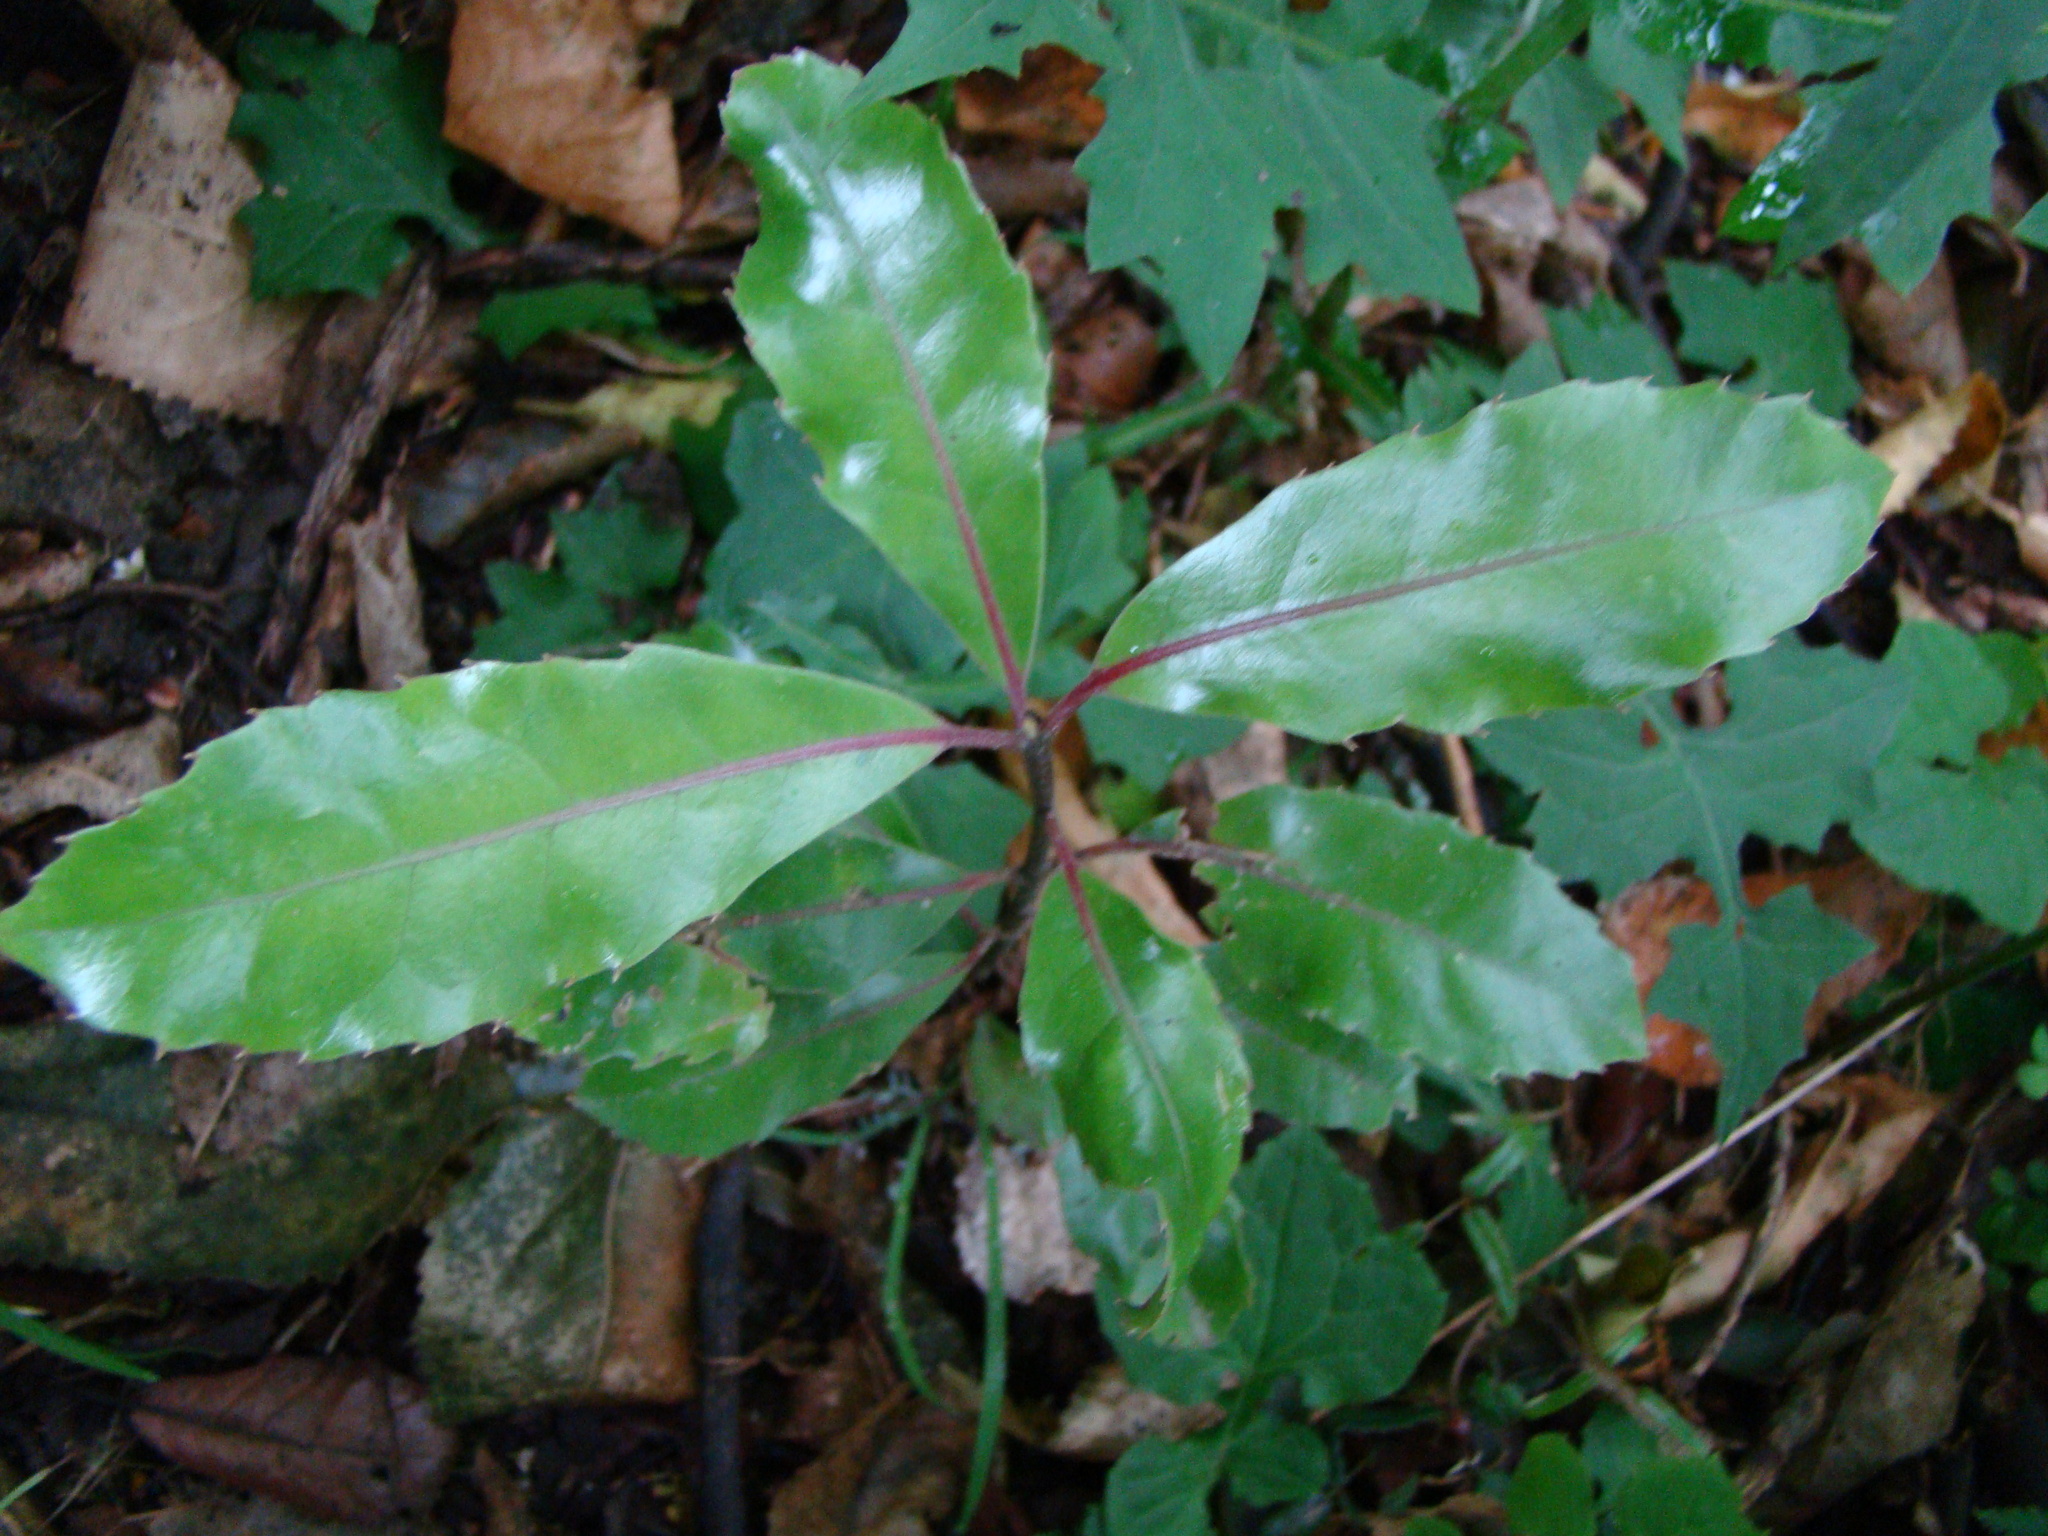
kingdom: Plantae
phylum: Tracheophyta
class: Magnoliopsida
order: Laurales
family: Monimiaceae
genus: Hedycarya
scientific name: Hedycarya arborea
